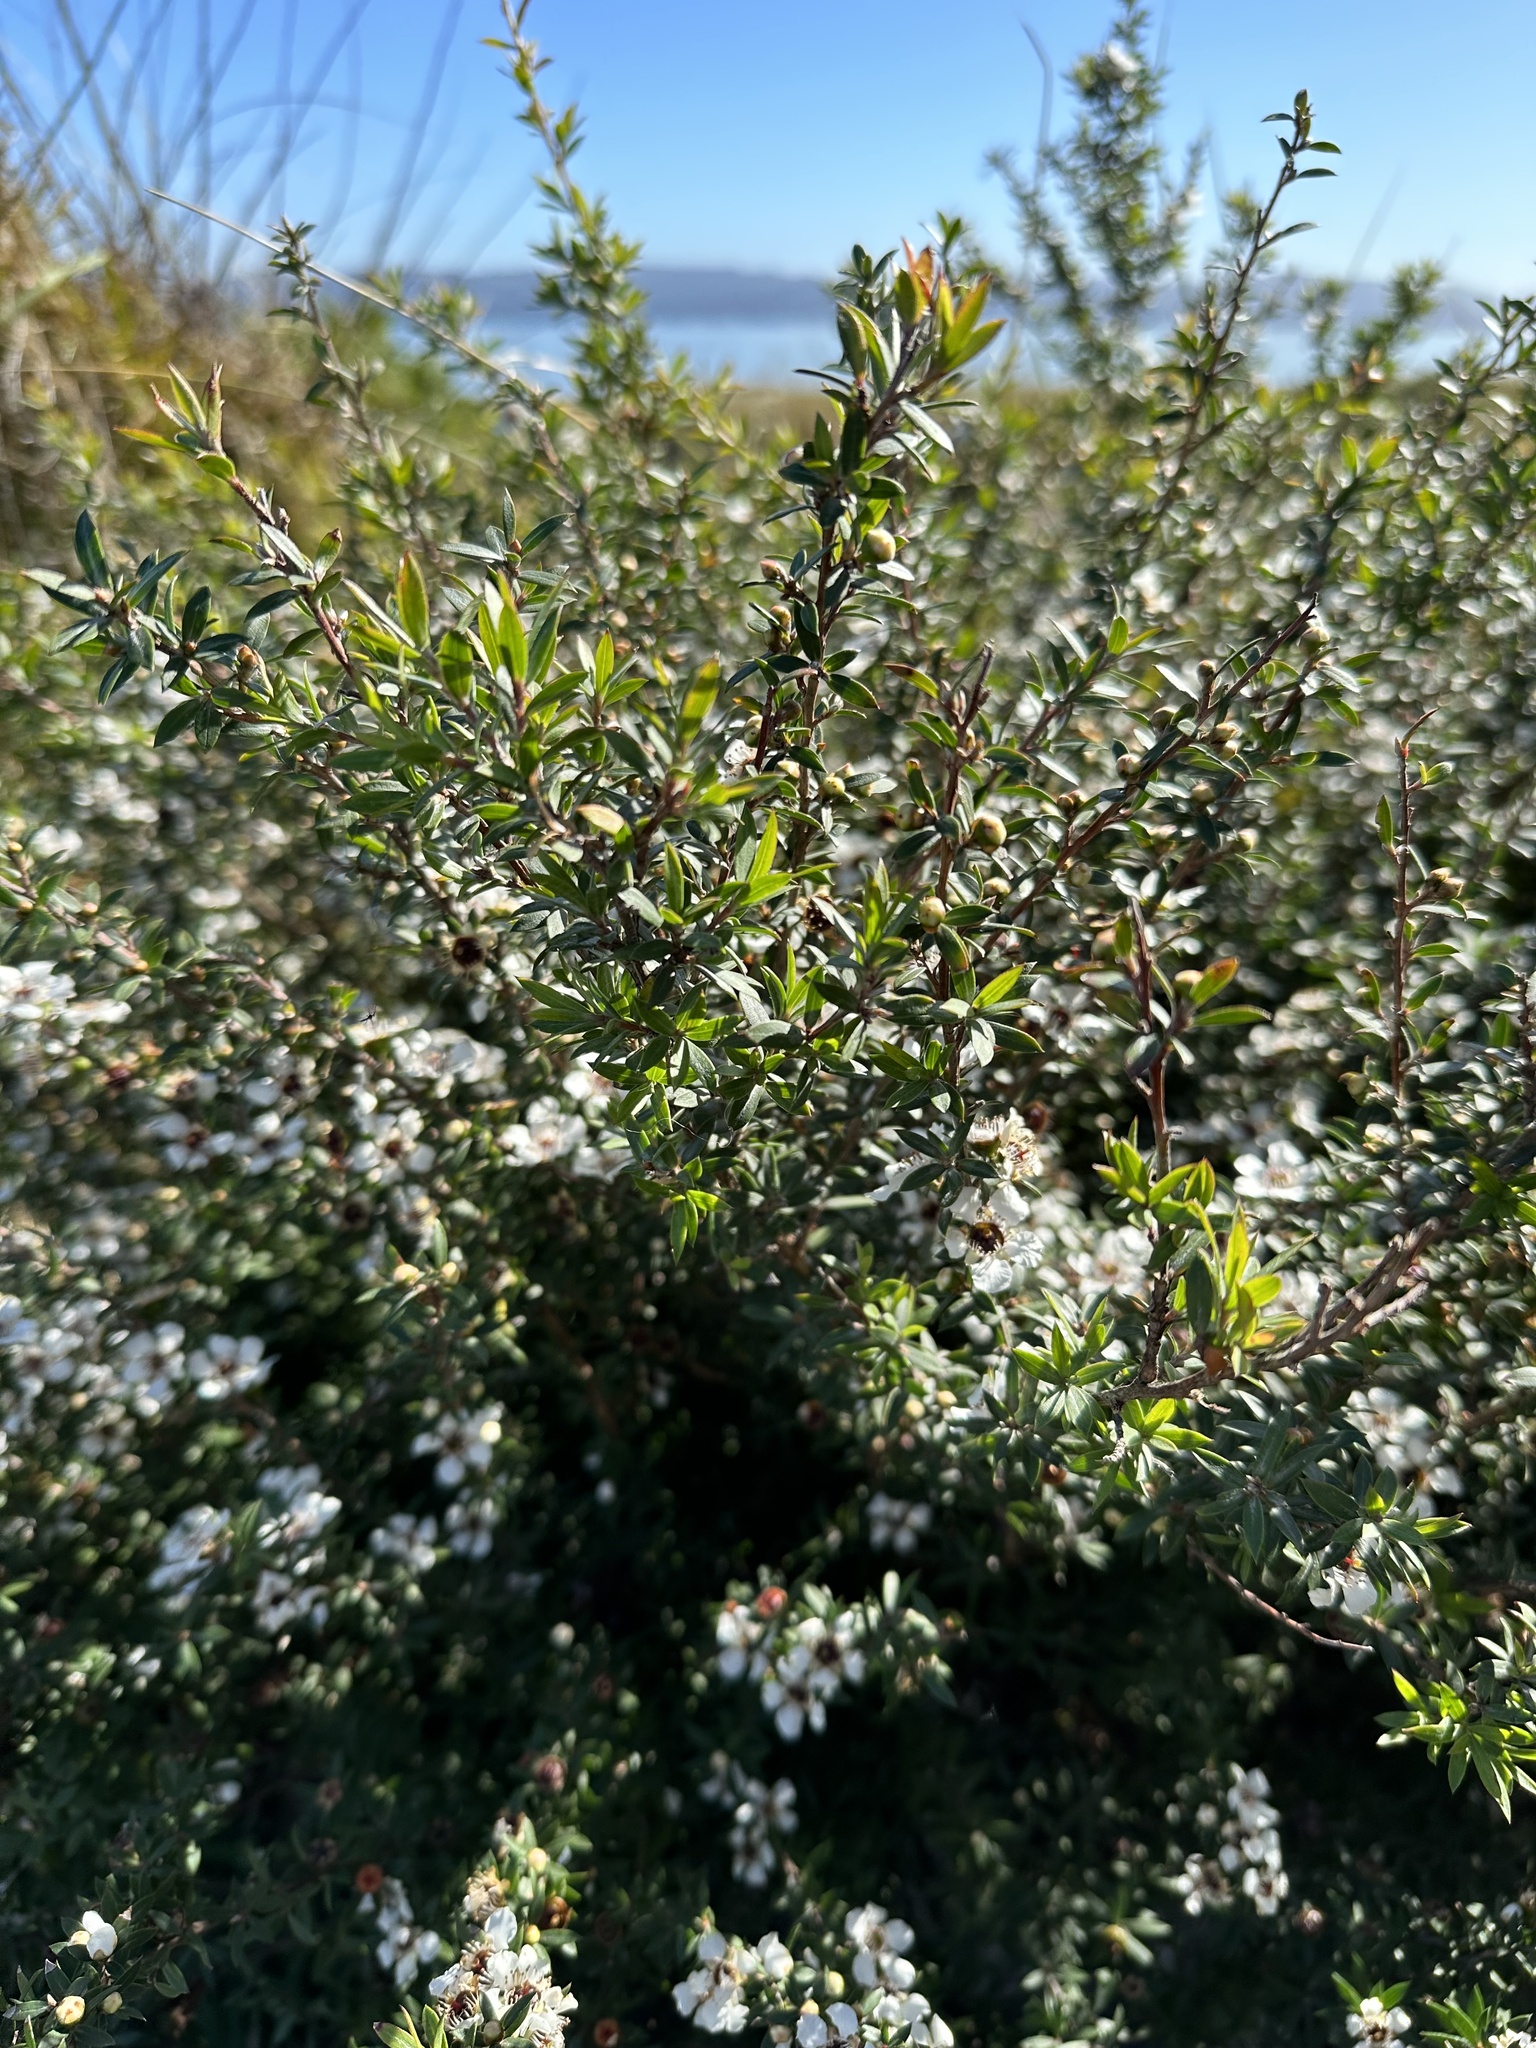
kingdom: Plantae
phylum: Tracheophyta
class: Magnoliopsida
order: Myrtales
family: Myrtaceae
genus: Leptospermum
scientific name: Leptospermum scoparium
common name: Broom tea-tree
